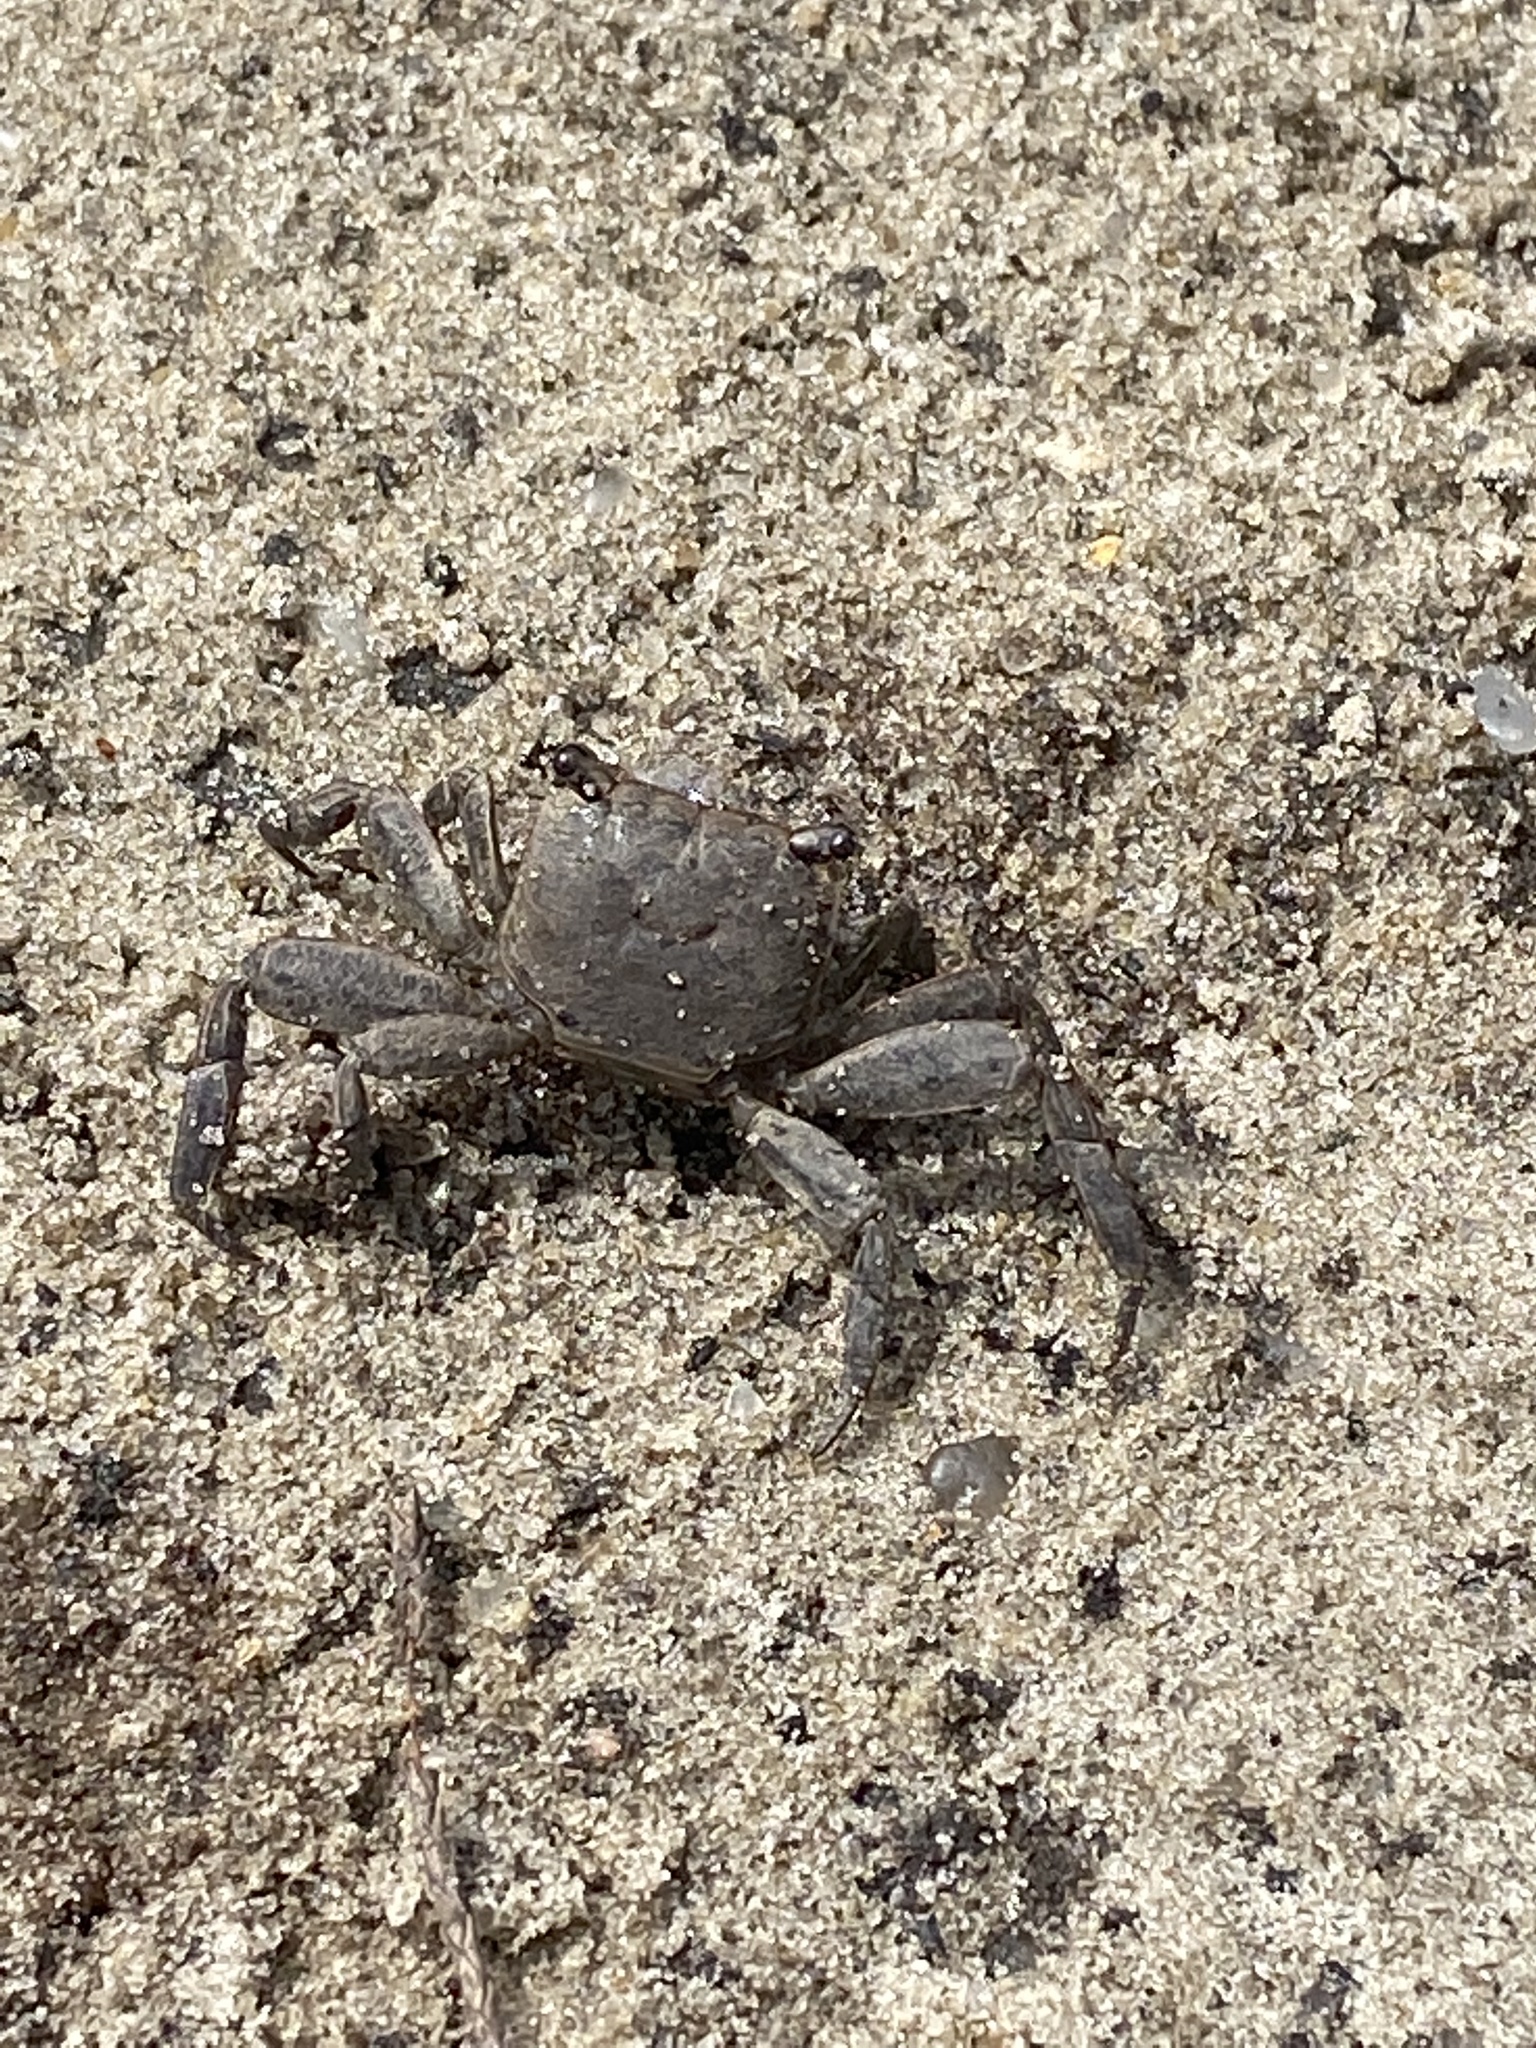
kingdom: Animalia
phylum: Arthropoda
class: Malacostraca
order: Decapoda
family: Sesarmidae
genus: Armases
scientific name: Armases cinereum
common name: Squareback marsh crab
